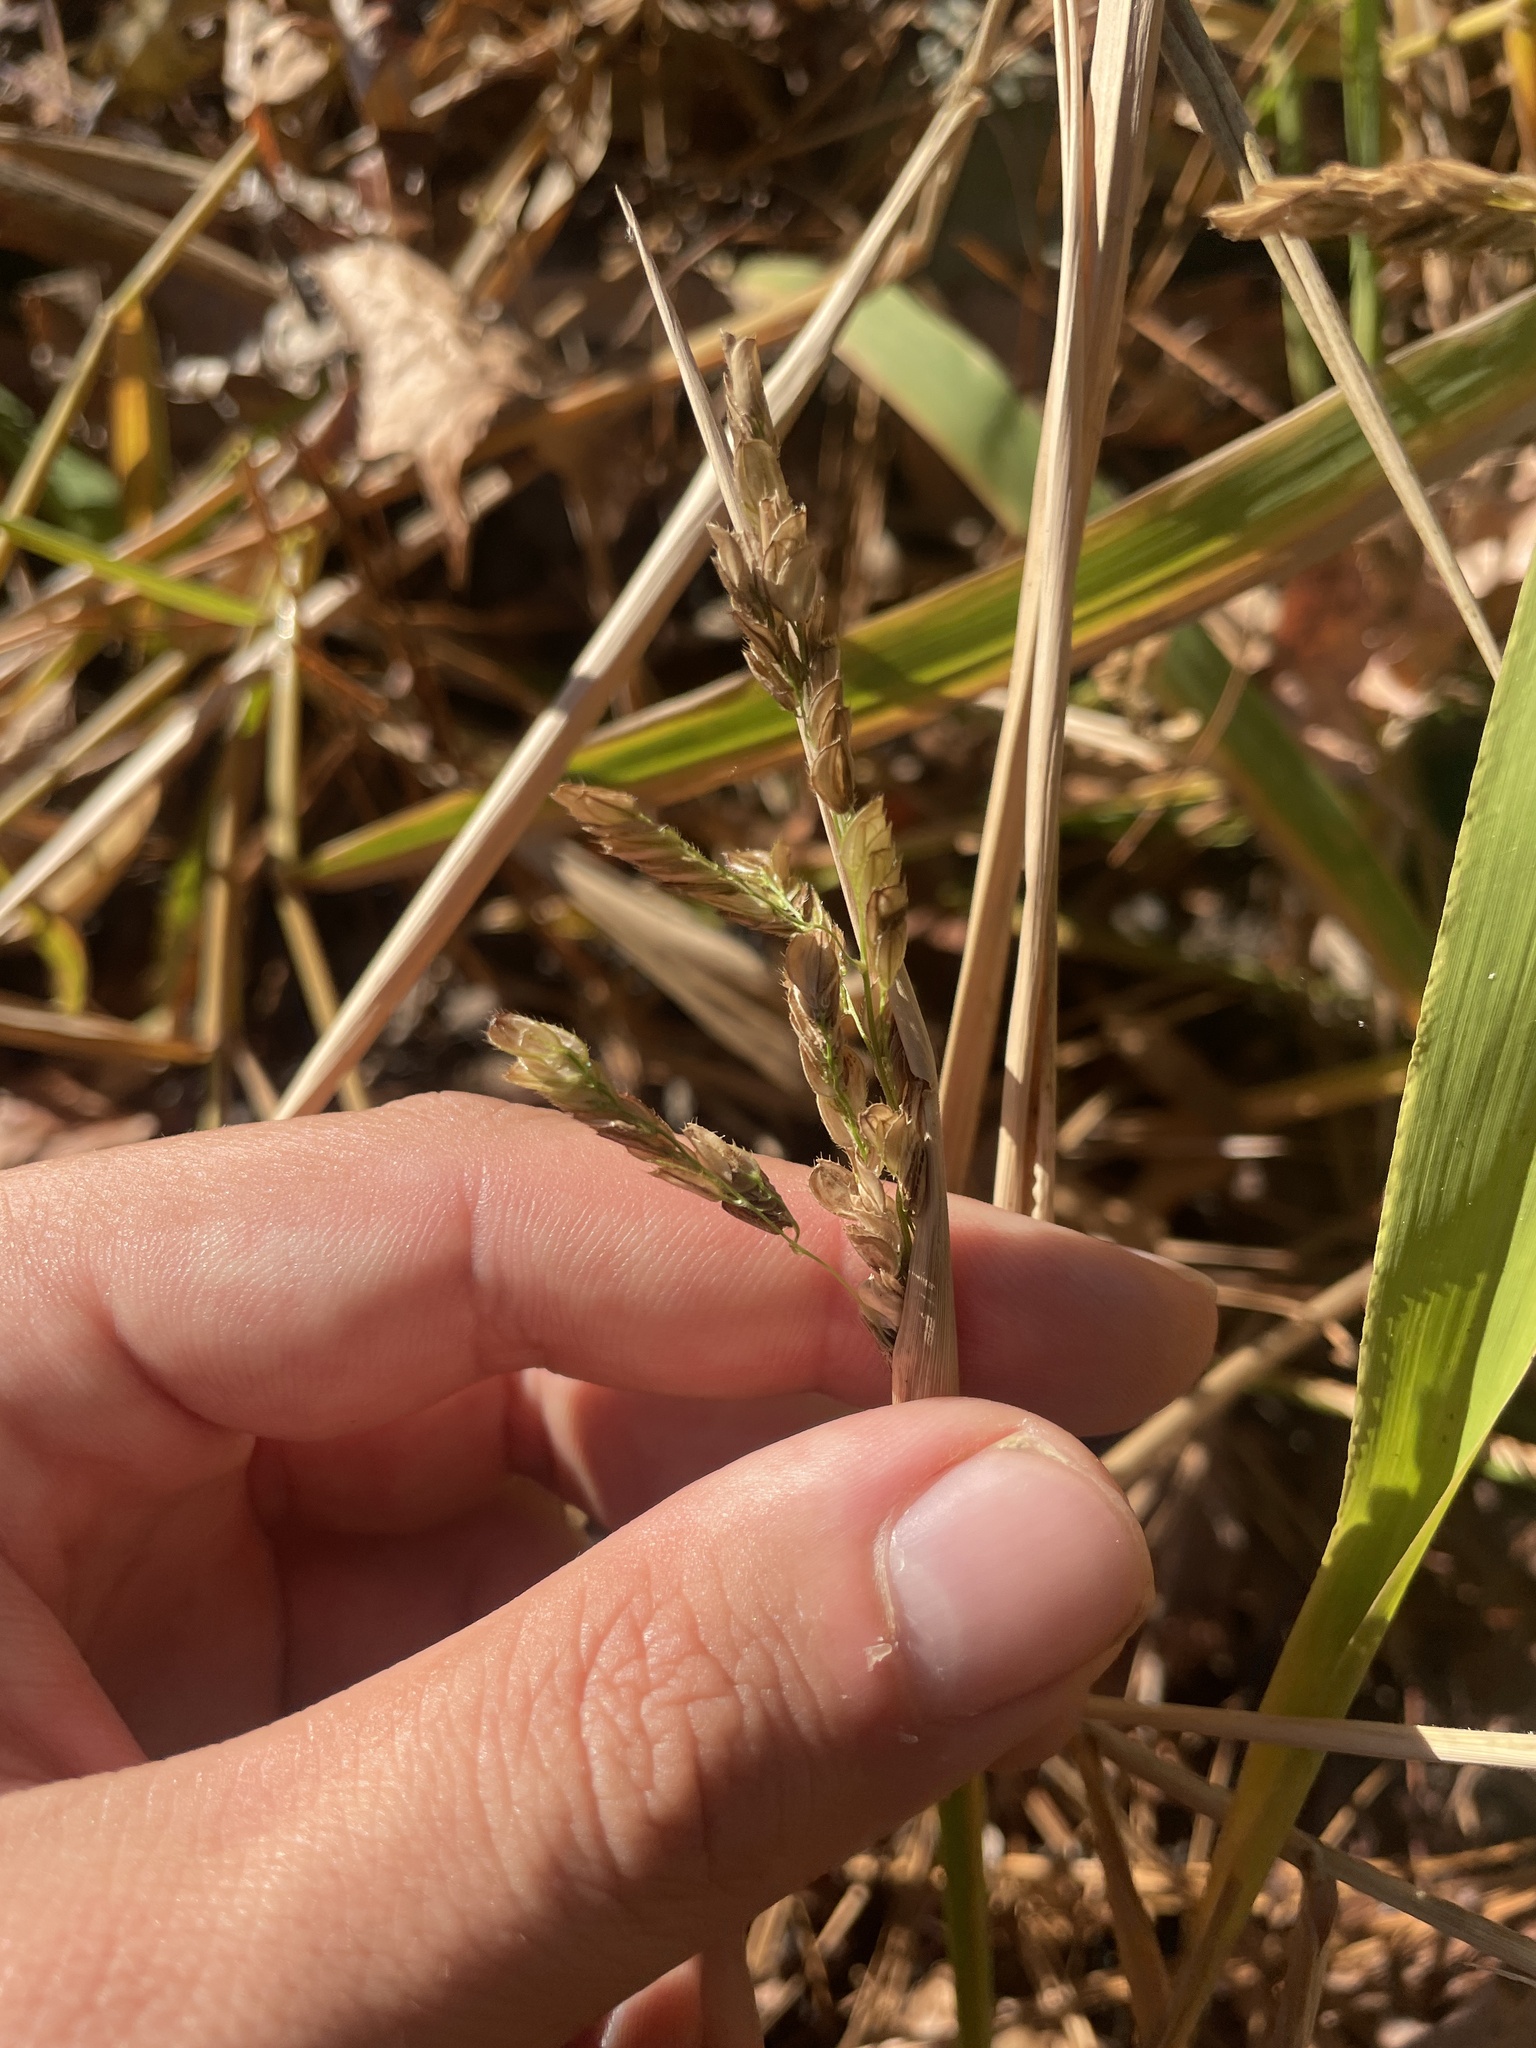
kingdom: Plantae
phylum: Tracheophyta
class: Liliopsida
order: Poales
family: Poaceae
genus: Leersia
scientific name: Leersia lenticularis
